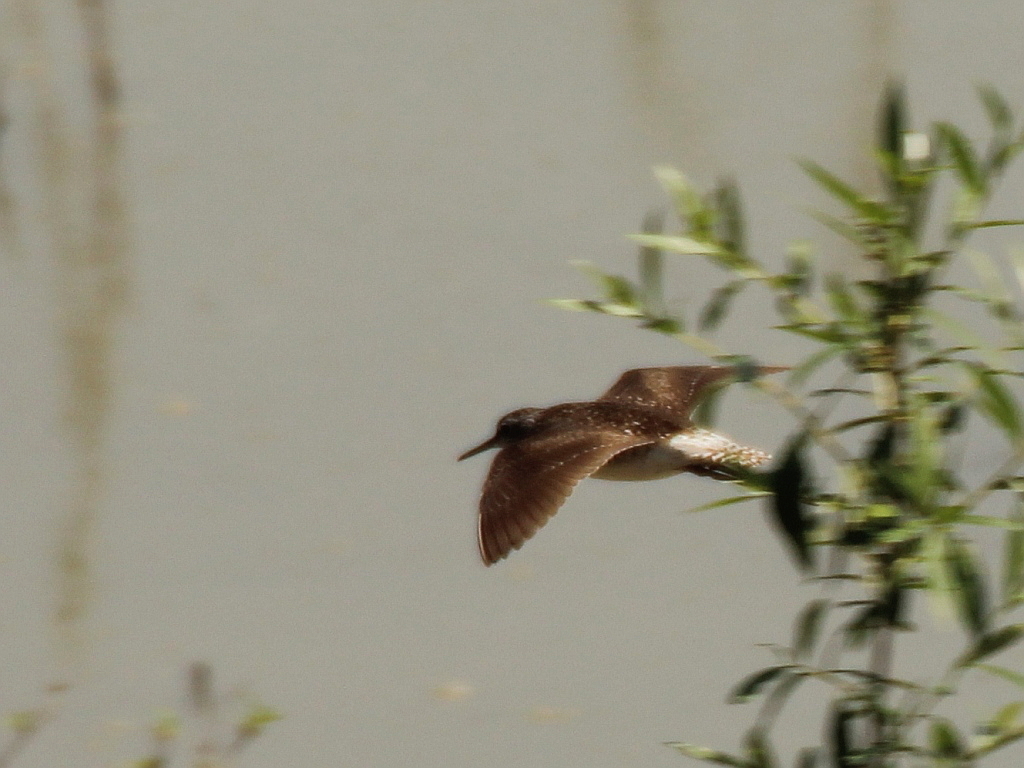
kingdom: Animalia
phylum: Chordata
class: Aves
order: Charadriiformes
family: Scolopacidae
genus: Tringa
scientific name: Tringa glareola
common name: Wood sandpiper
